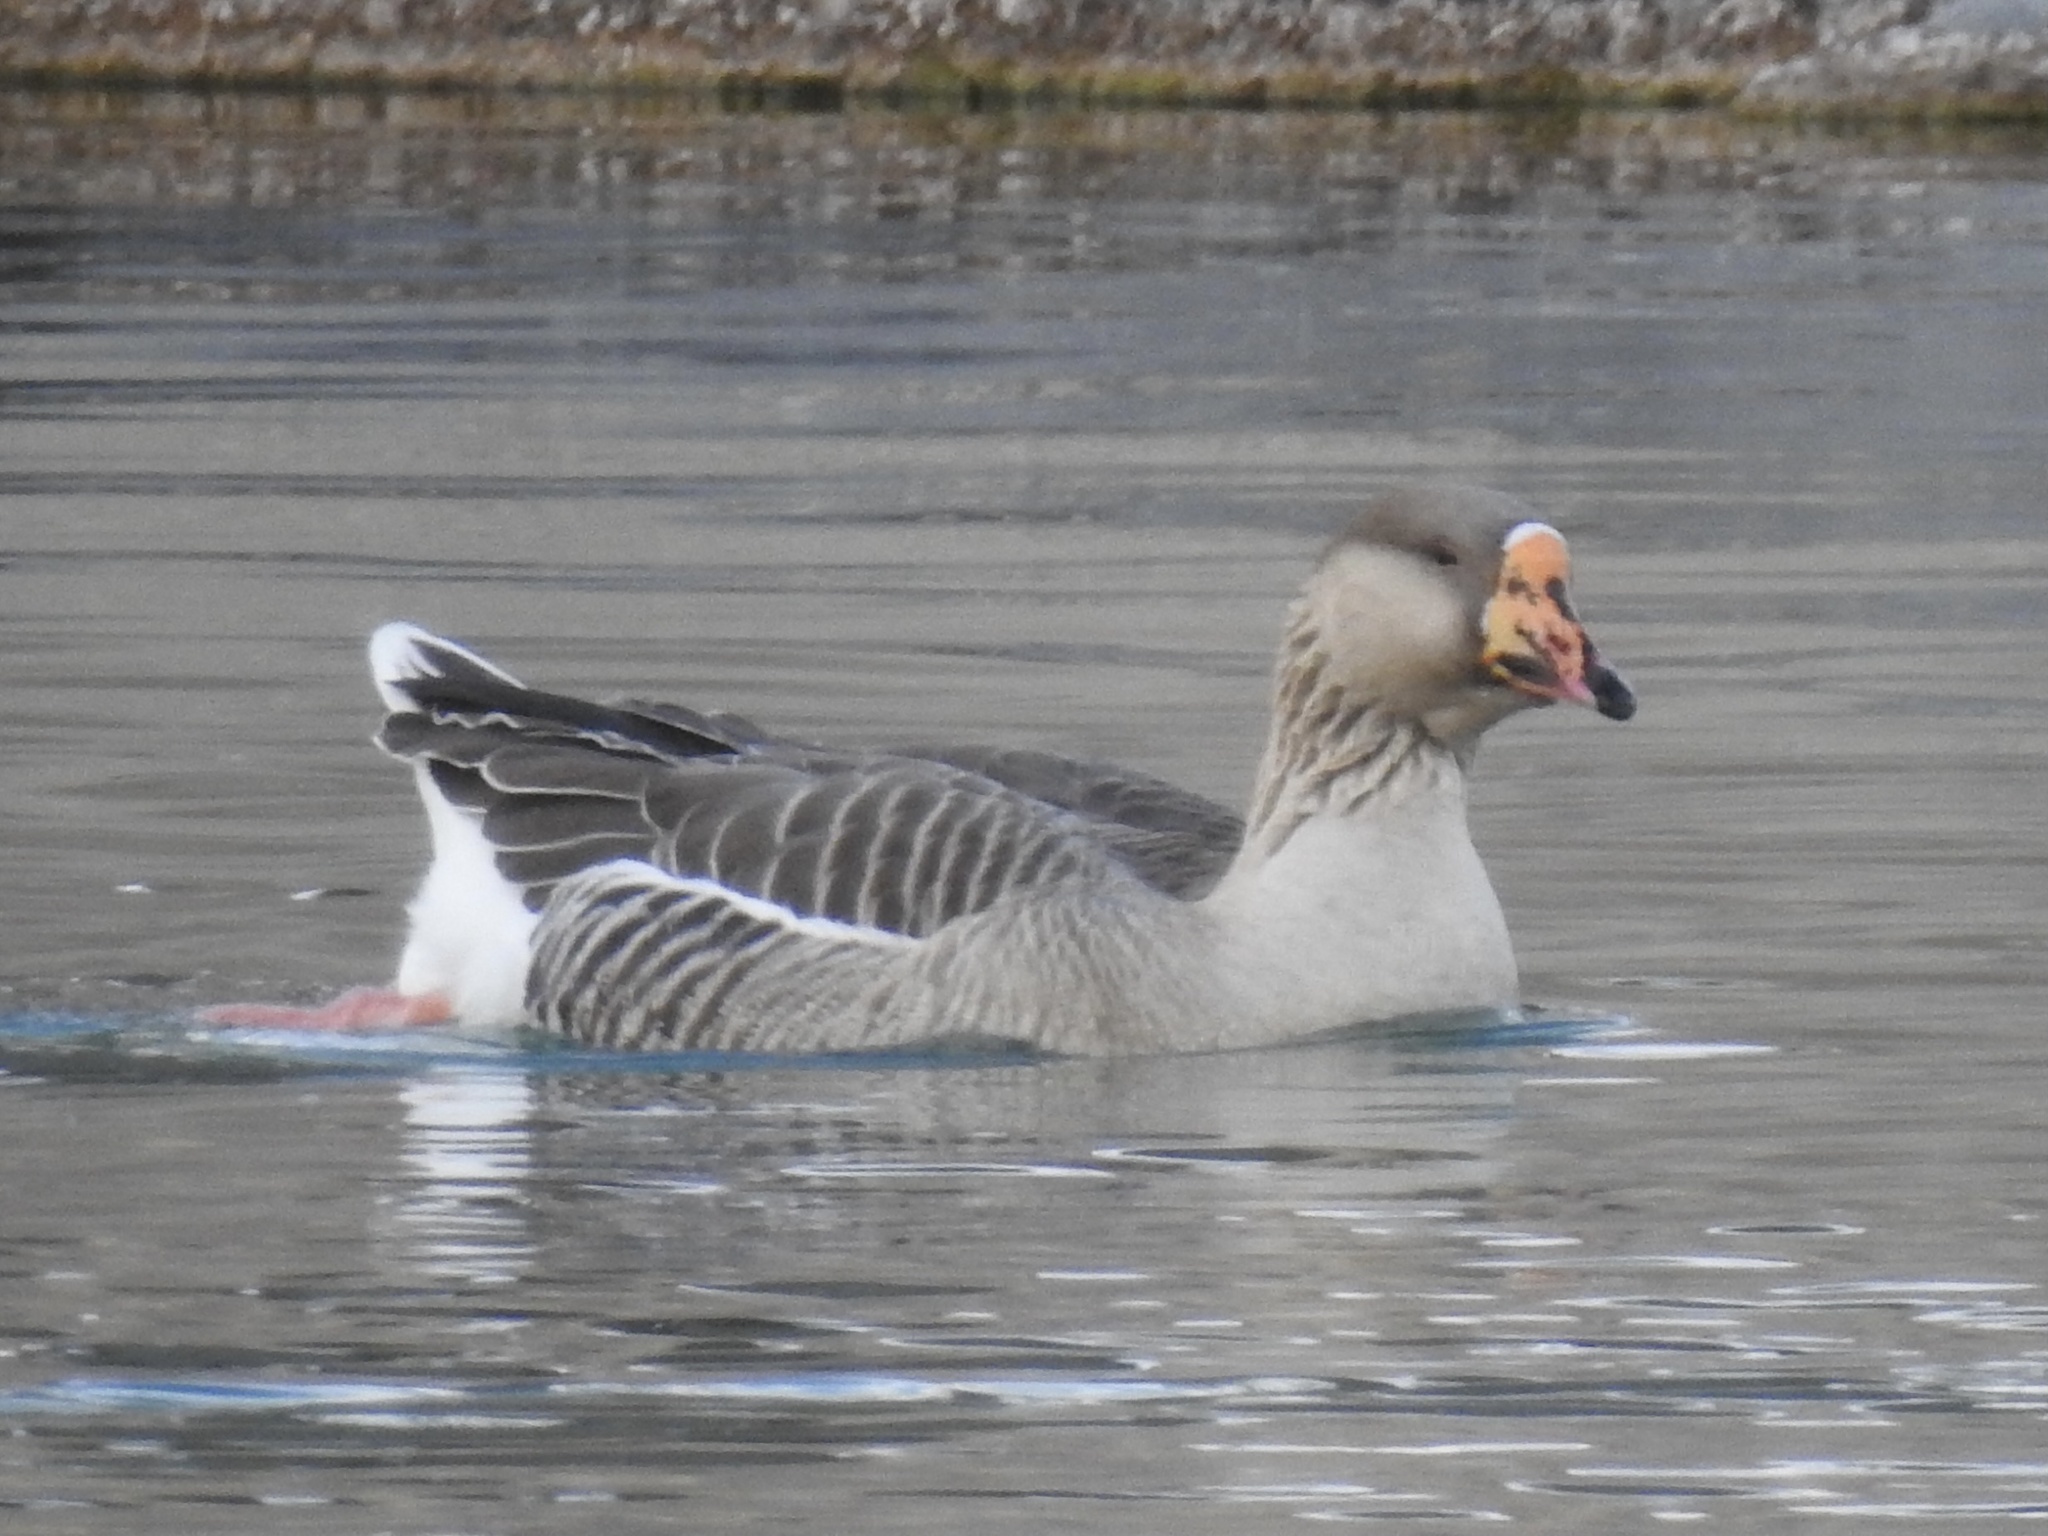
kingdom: Animalia
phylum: Chordata
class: Aves
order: Anseriformes
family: Anatidae
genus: Anser
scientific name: Anser
